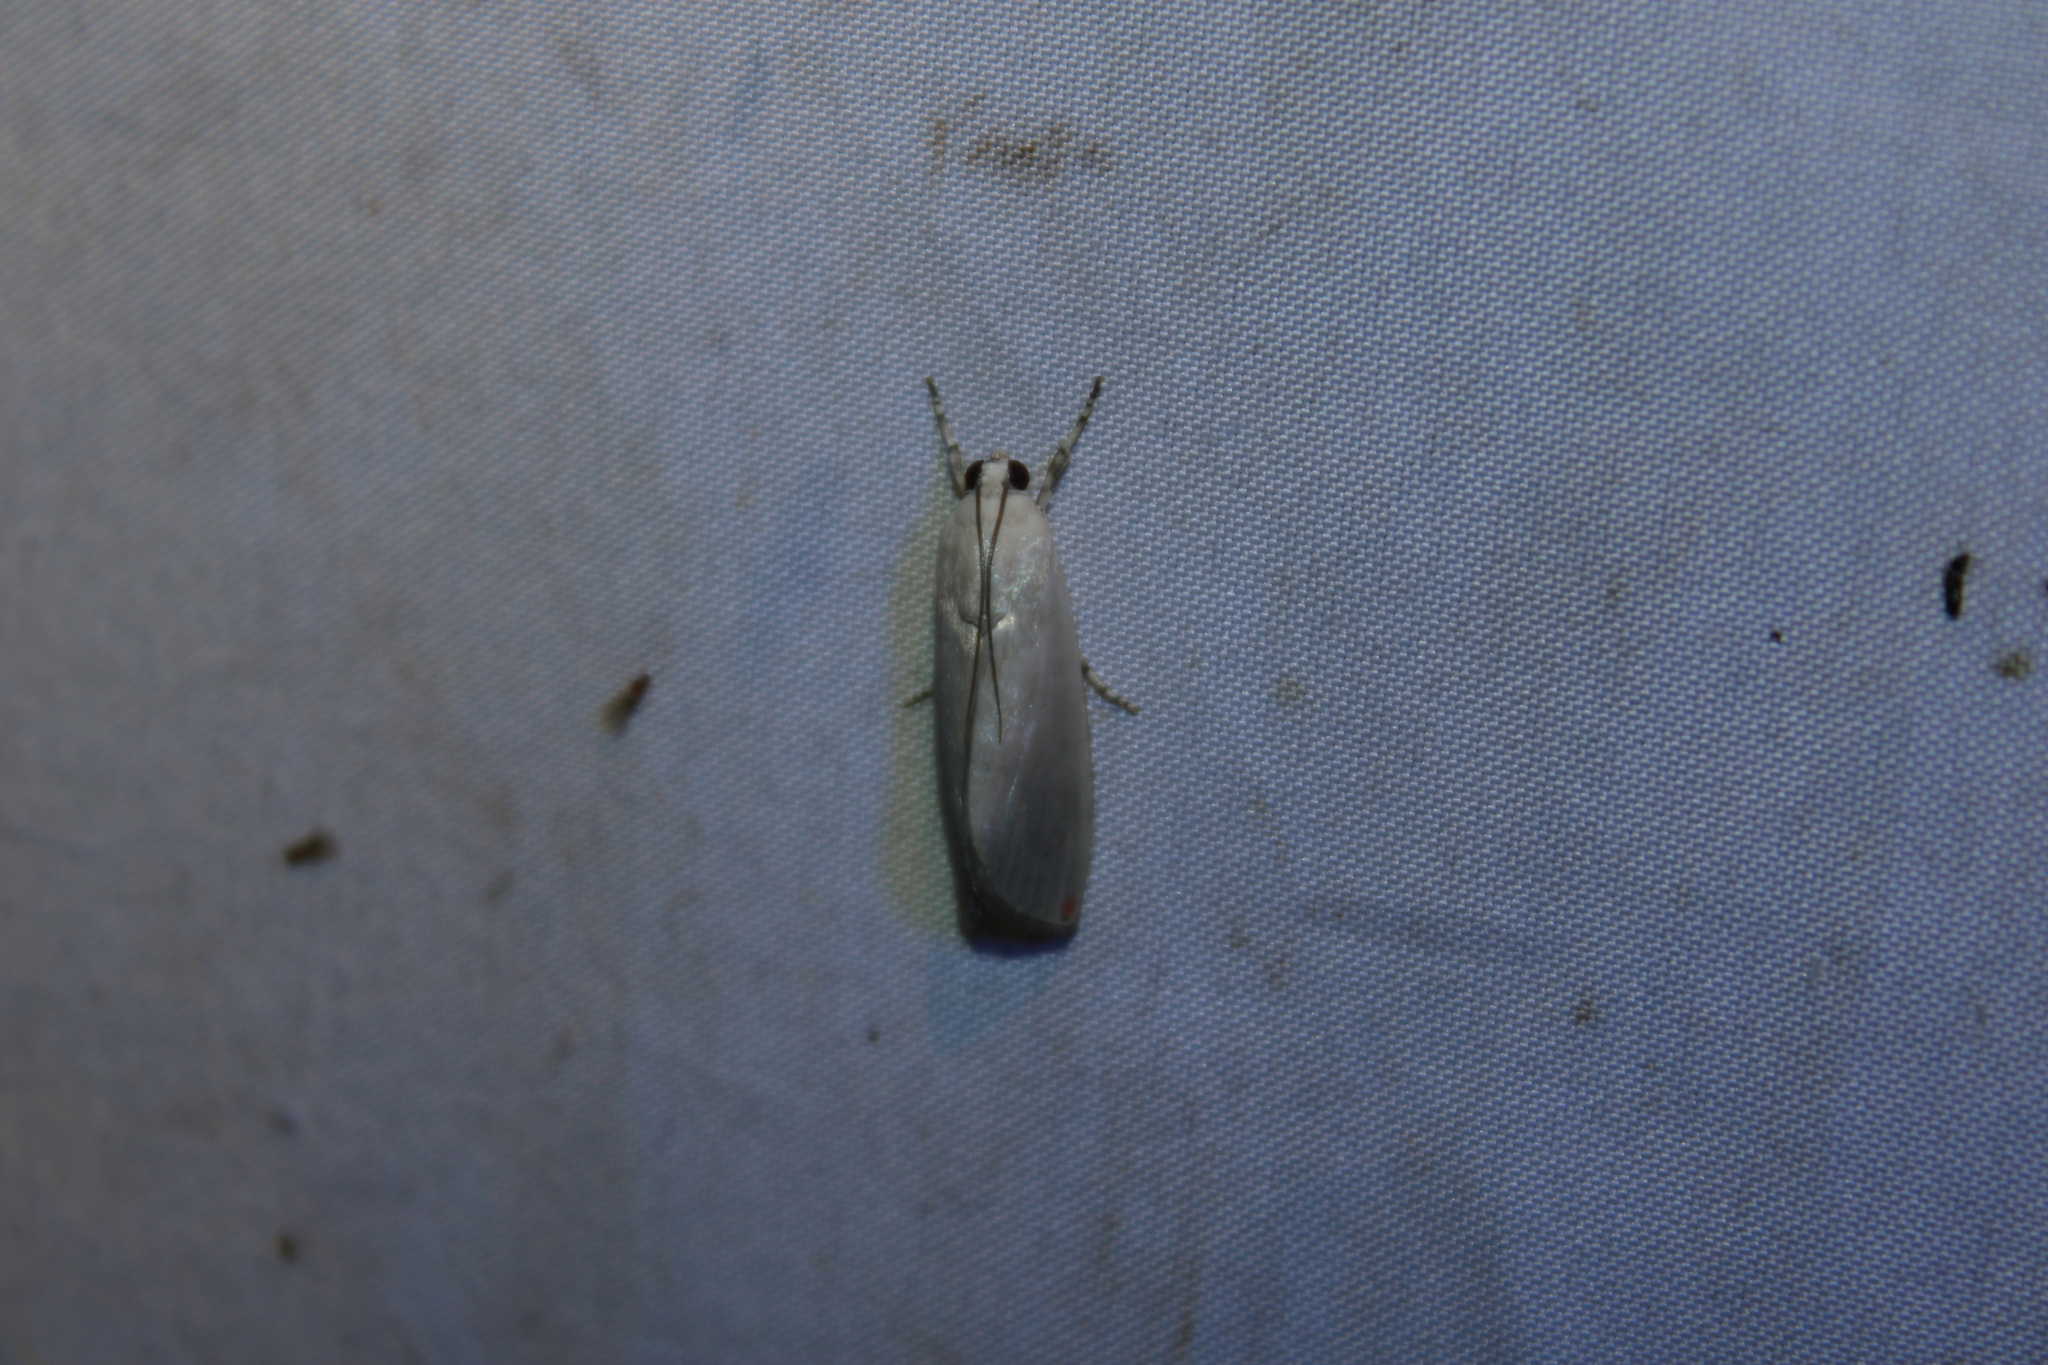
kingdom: Animalia
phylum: Arthropoda
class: Insecta
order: Lepidoptera
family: Crambidae
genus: Dichogama
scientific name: Dichogama amabilis
